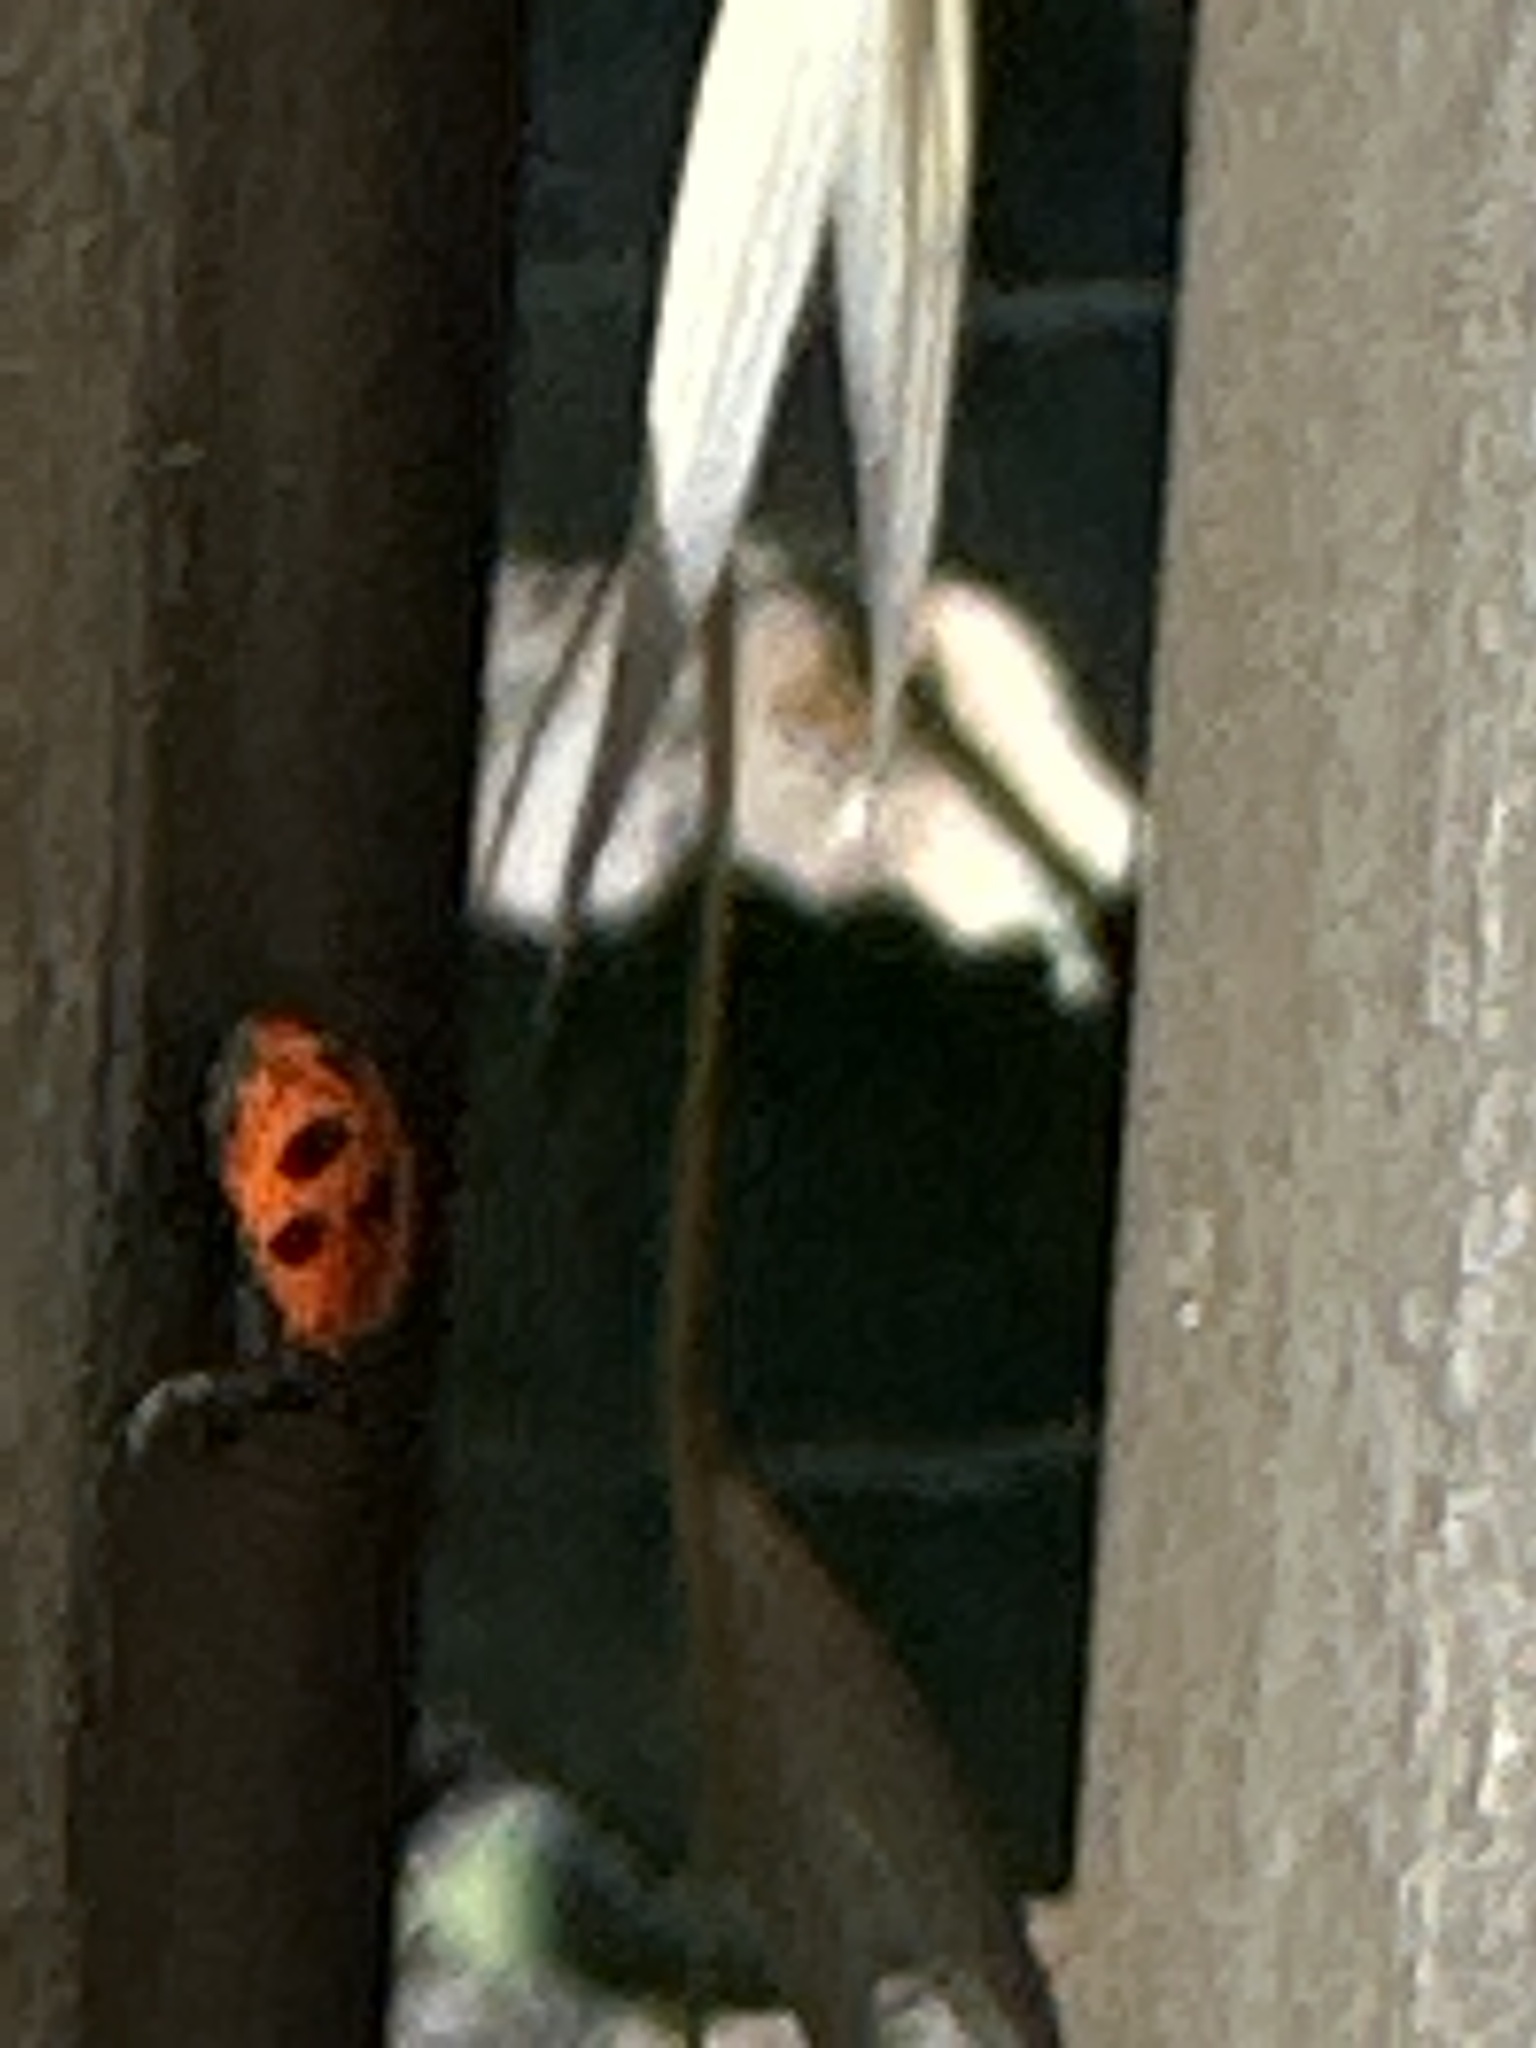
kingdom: Animalia
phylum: Arthropoda
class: Insecta
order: Coleoptera
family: Coccinellidae
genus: Hippodamia
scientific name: Hippodamia convergens
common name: Convergent lady beetle
